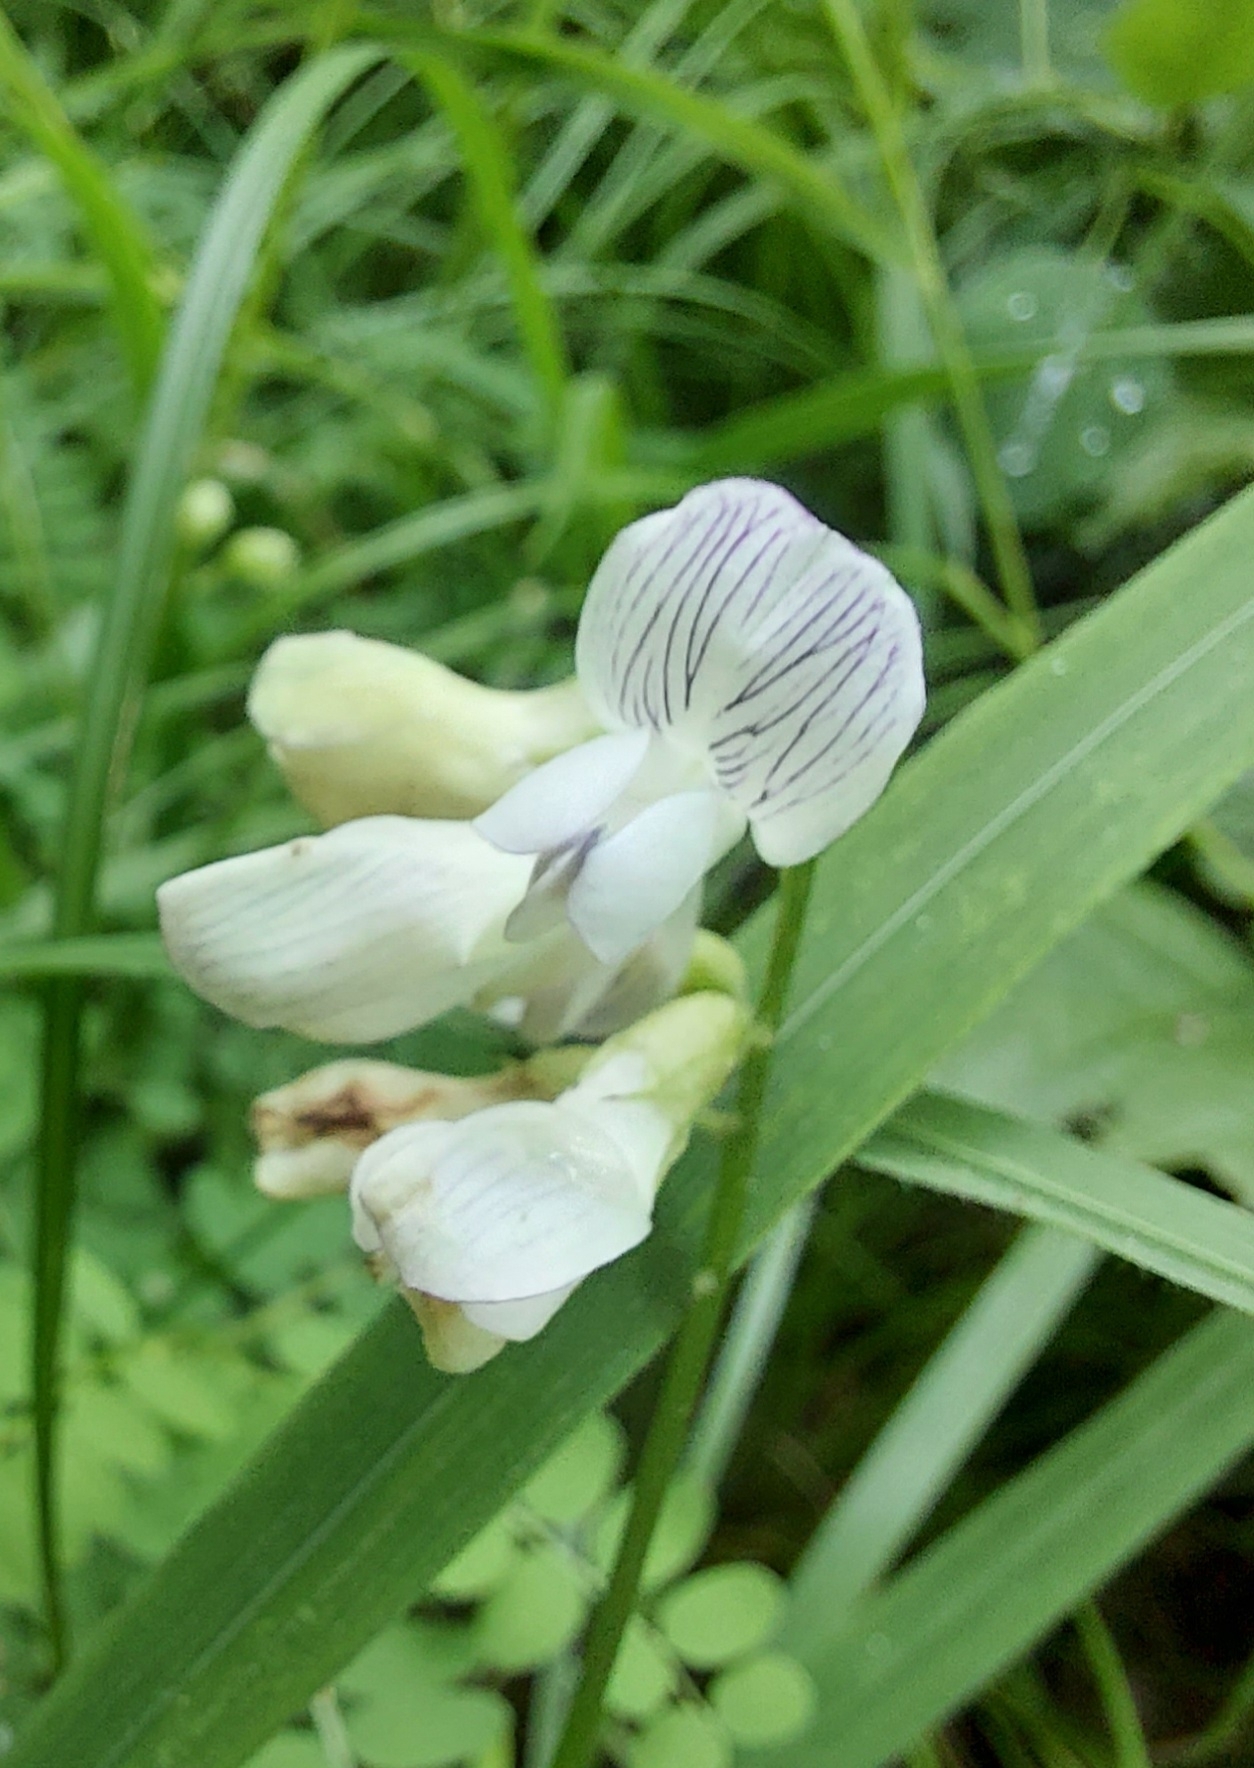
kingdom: Plantae
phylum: Tracheophyta
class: Magnoliopsida
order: Fabales
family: Fabaceae
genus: Vicia
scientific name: Vicia sylvatica
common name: Wood vetch
